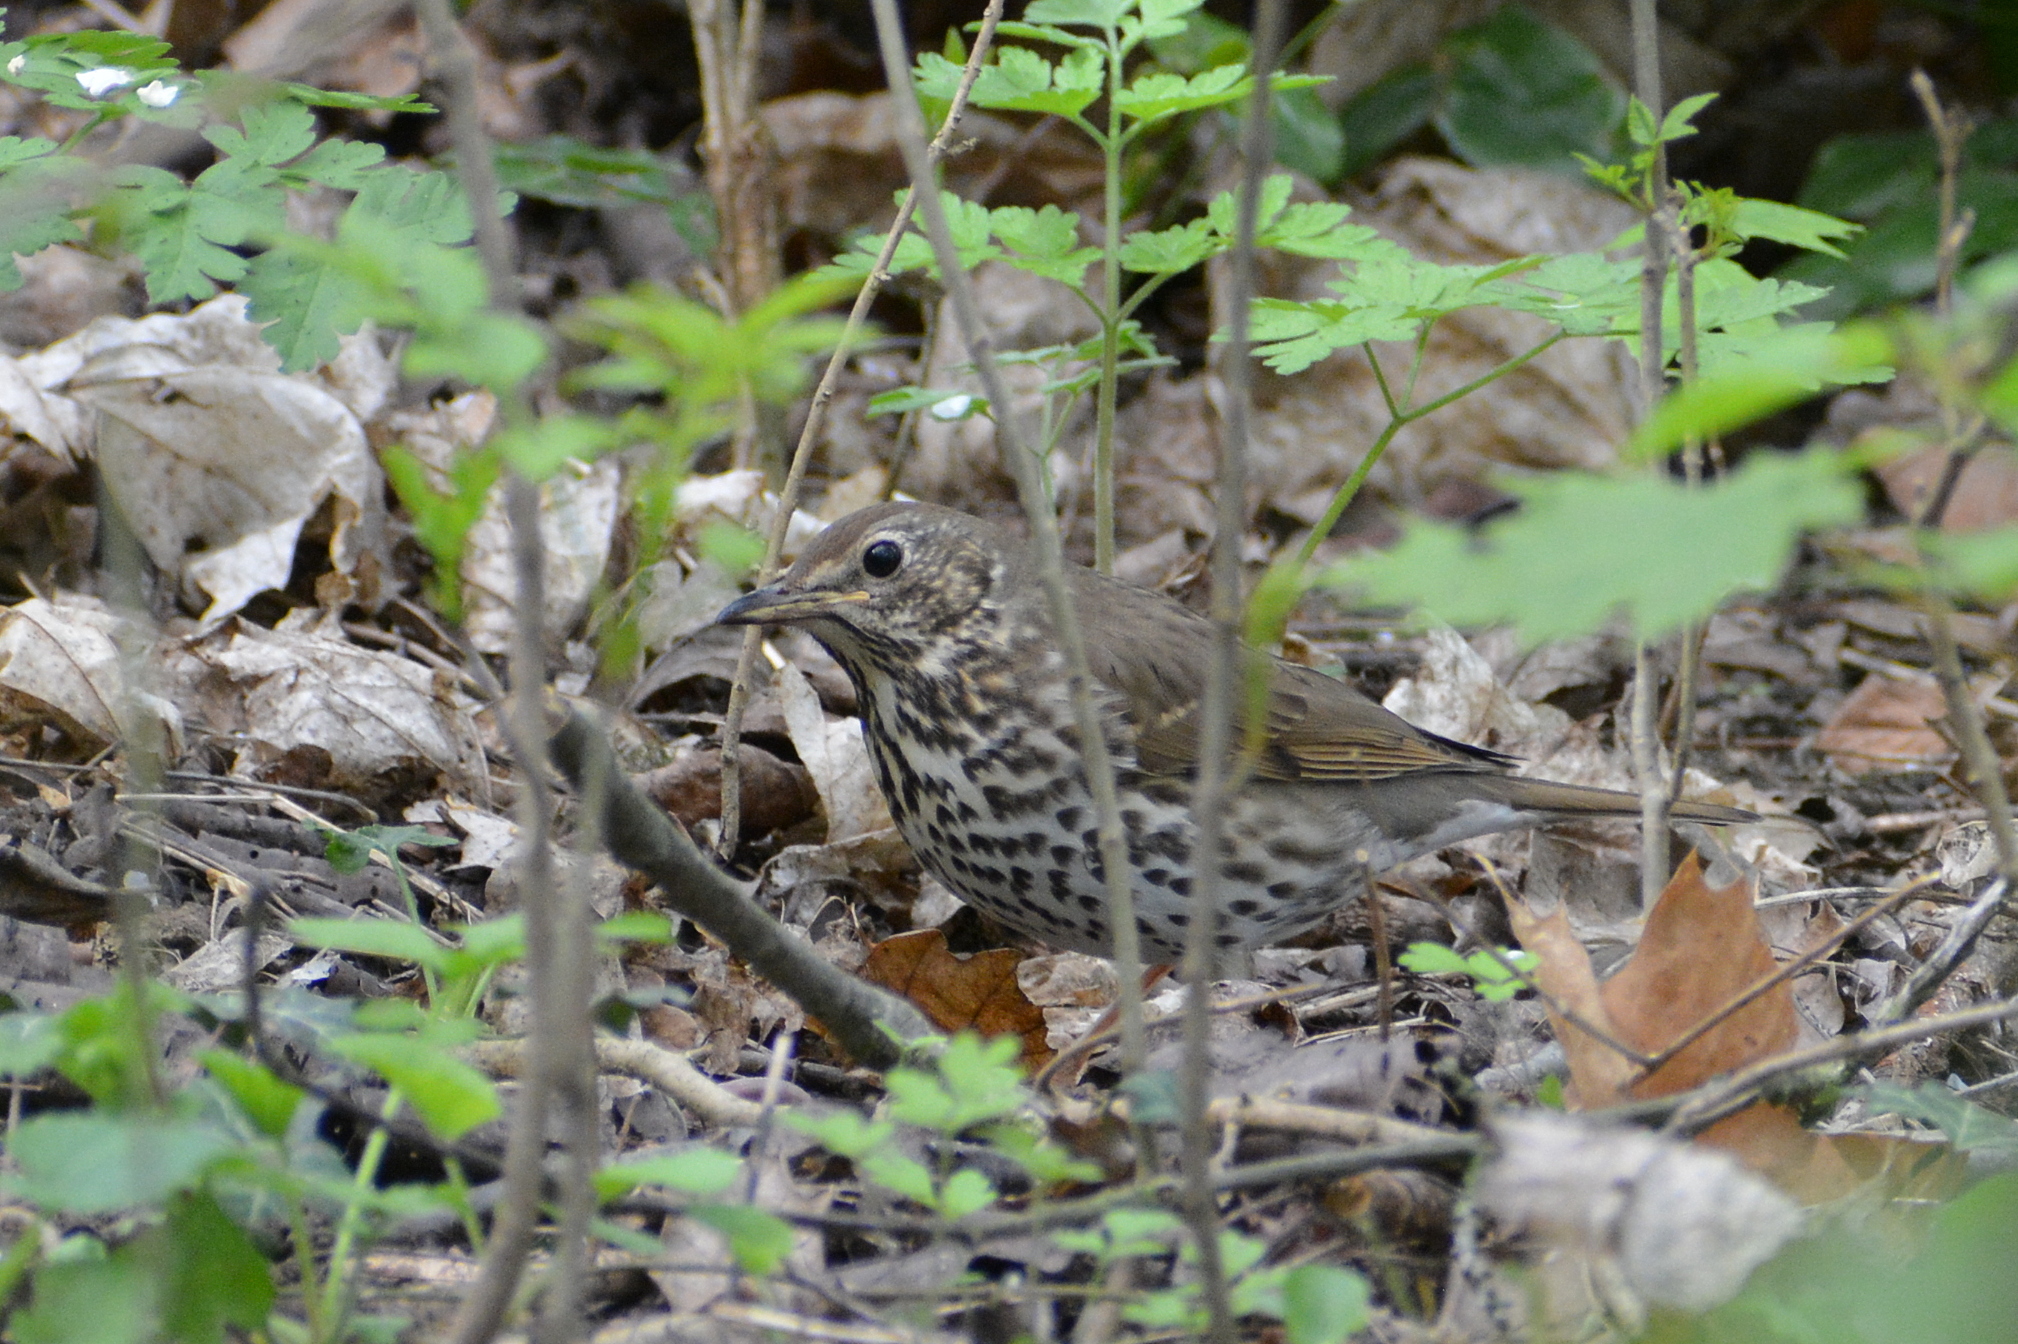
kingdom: Animalia
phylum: Chordata
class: Aves
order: Passeriformes
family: Turdidae
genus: Turdus
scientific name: Turdus philomelos
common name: Song thrush
